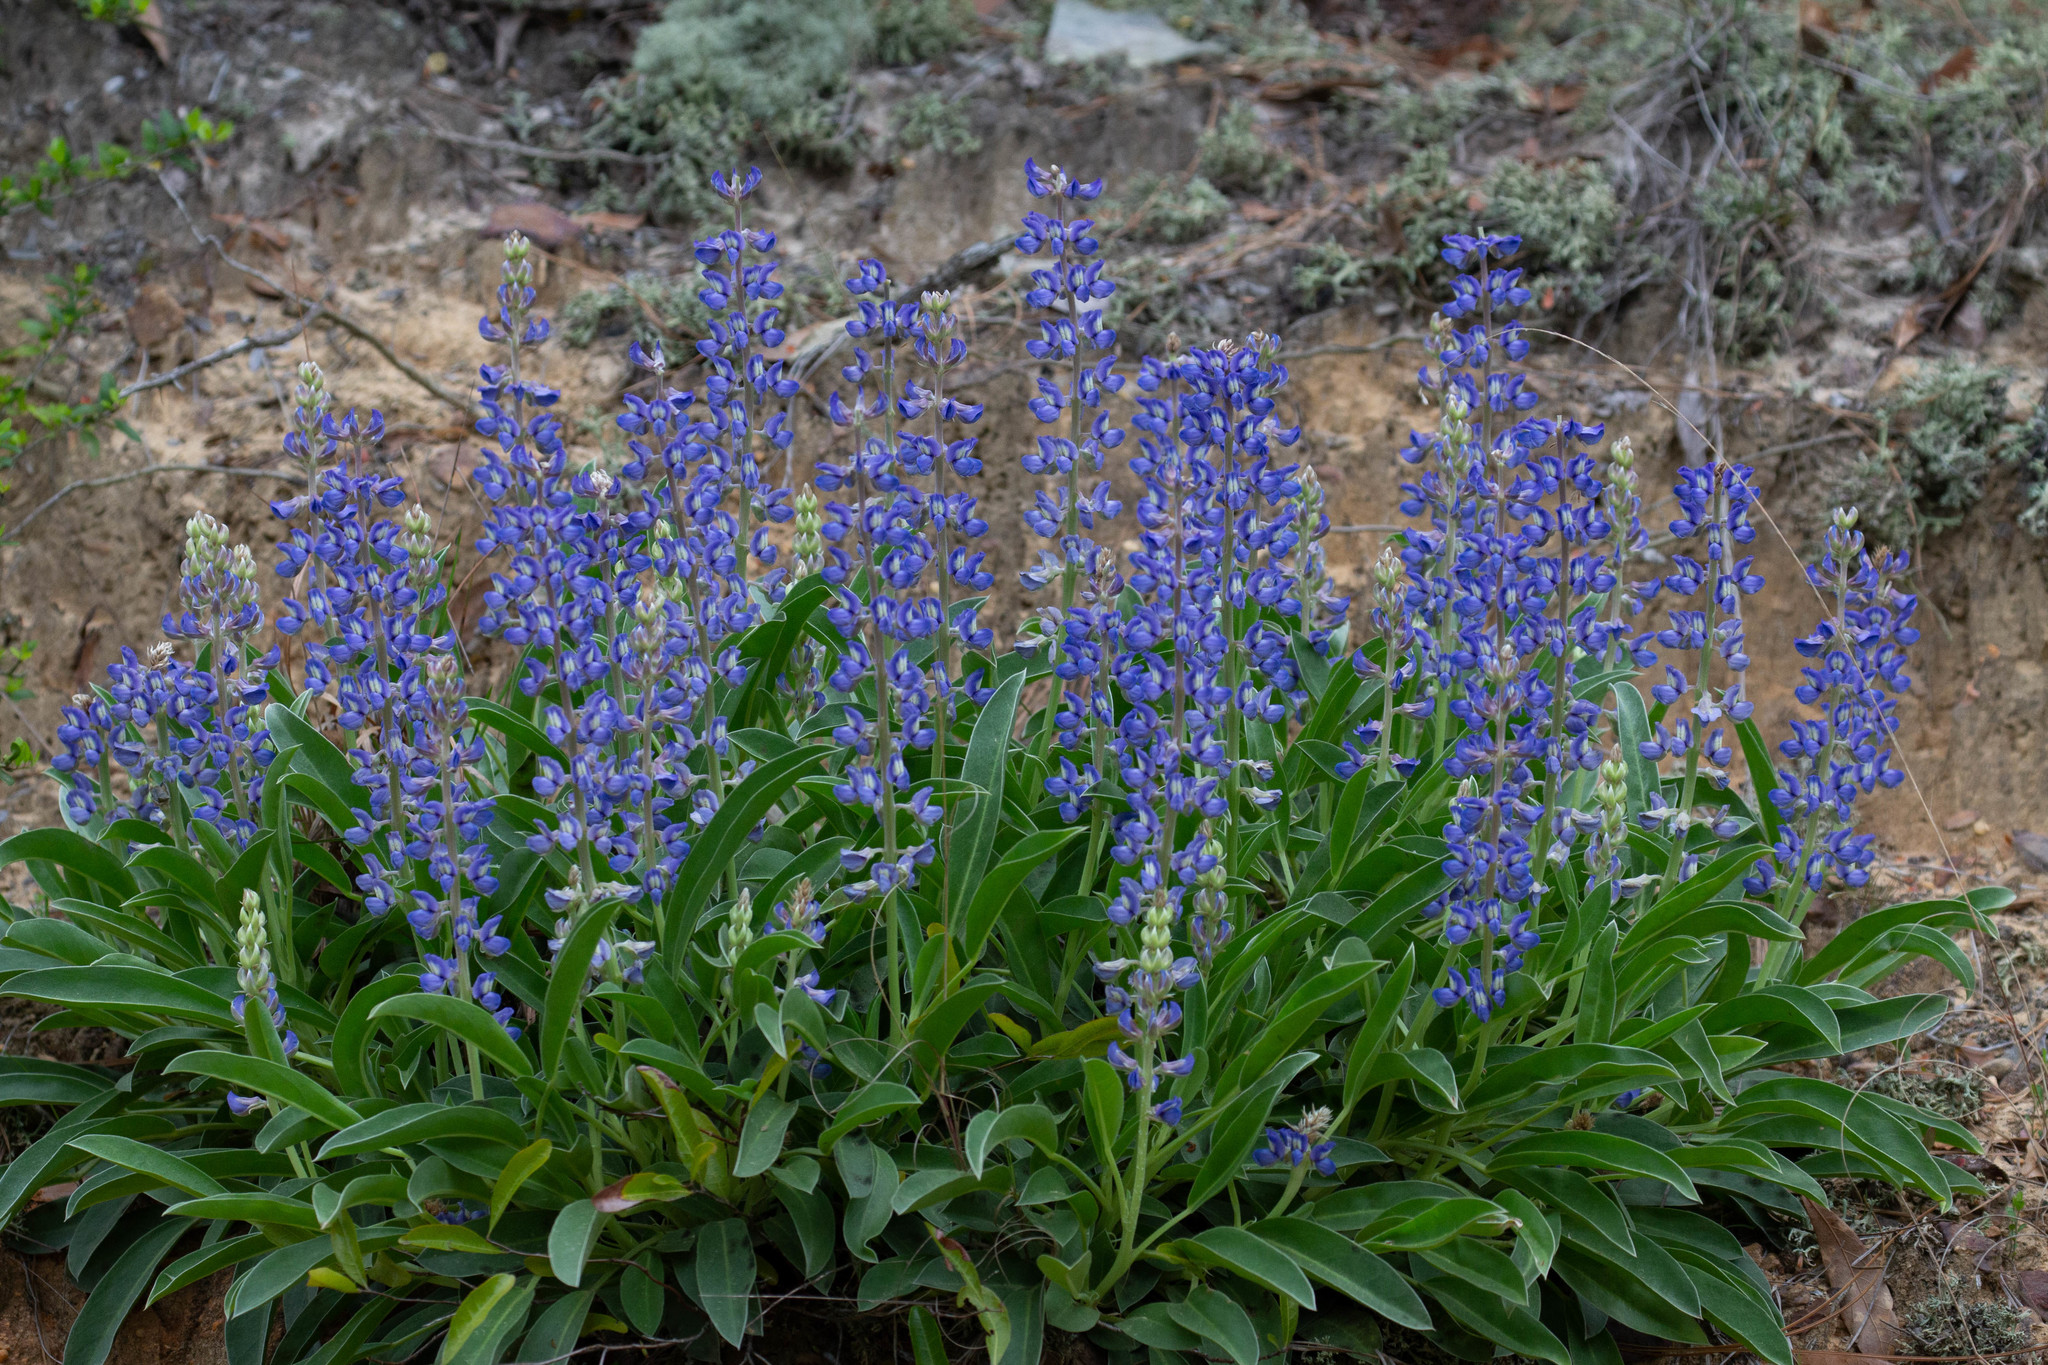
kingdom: Plantae
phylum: Tracheophyta
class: Magnoliopsida
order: Fabales
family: Fabaceae
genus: Lupinus
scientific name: Lupinus diffusus
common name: Oak ridge lupine
